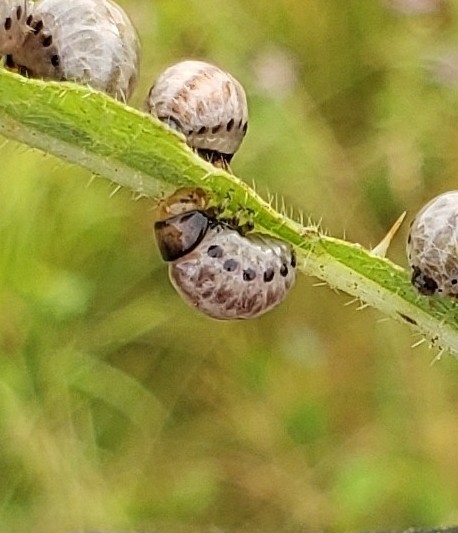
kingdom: Animalia
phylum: Arthropoda
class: Insecta
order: Coleoptera
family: Chrysomelidae
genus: Leptinotarsa
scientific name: Leptinotarsa juncta
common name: False potato beetle
